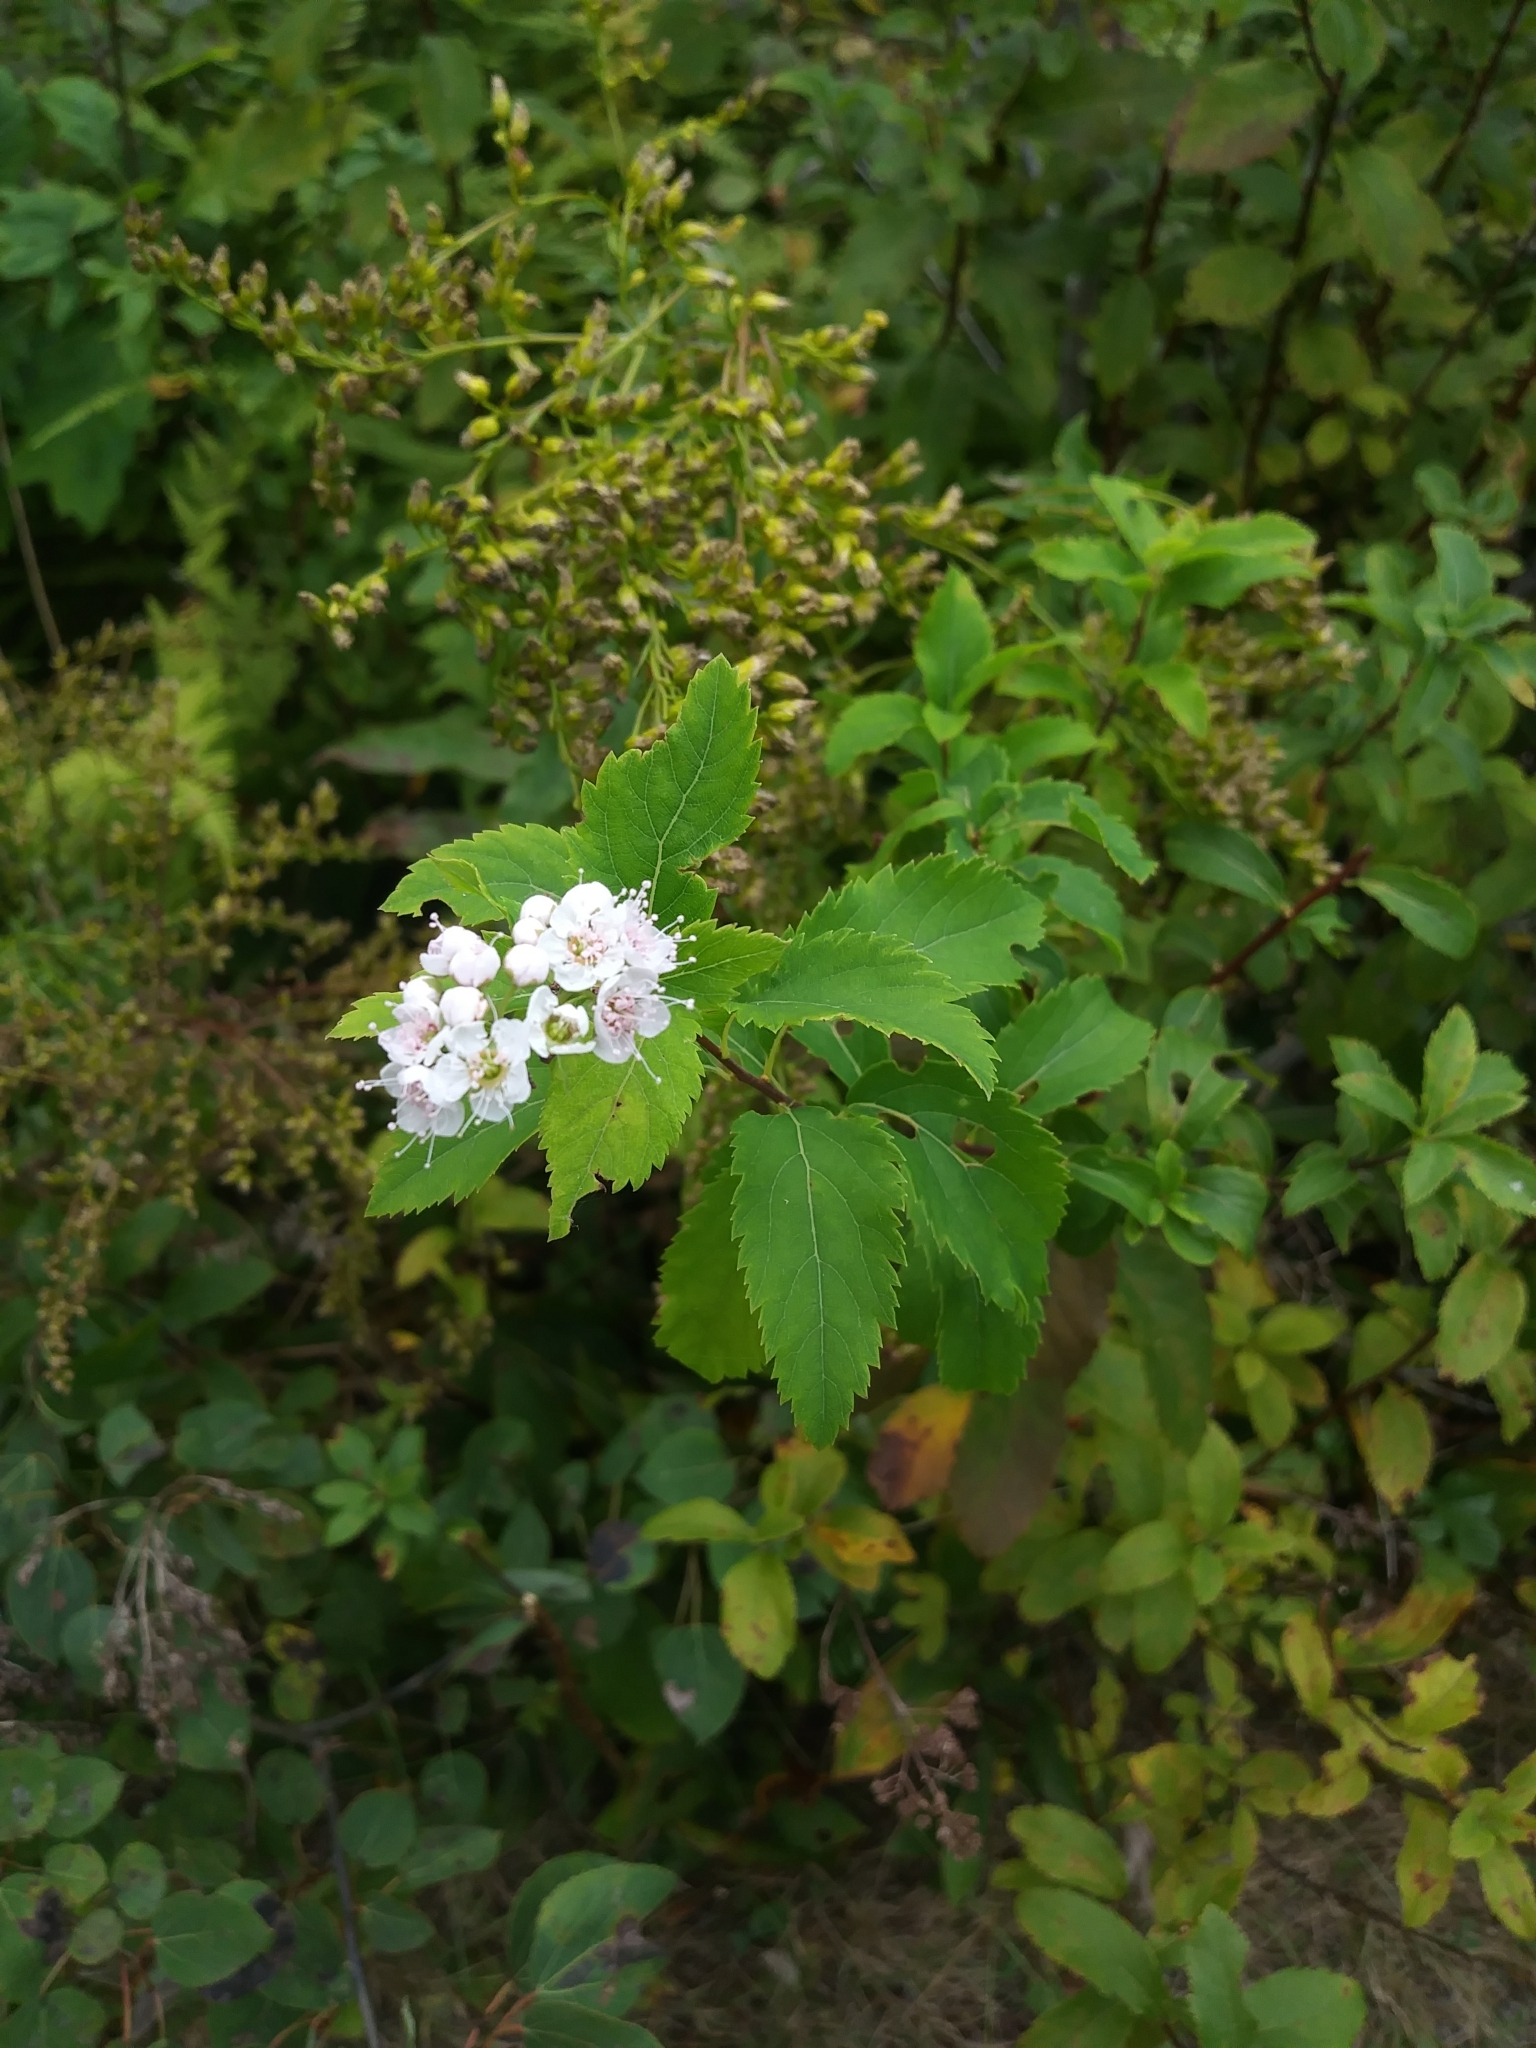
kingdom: Plantae
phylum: Tracheophyta
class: Magnoliopsida
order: Rosales
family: Rosaceae
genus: Spiraea
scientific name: Spiraea alba
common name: Pale bridewort
